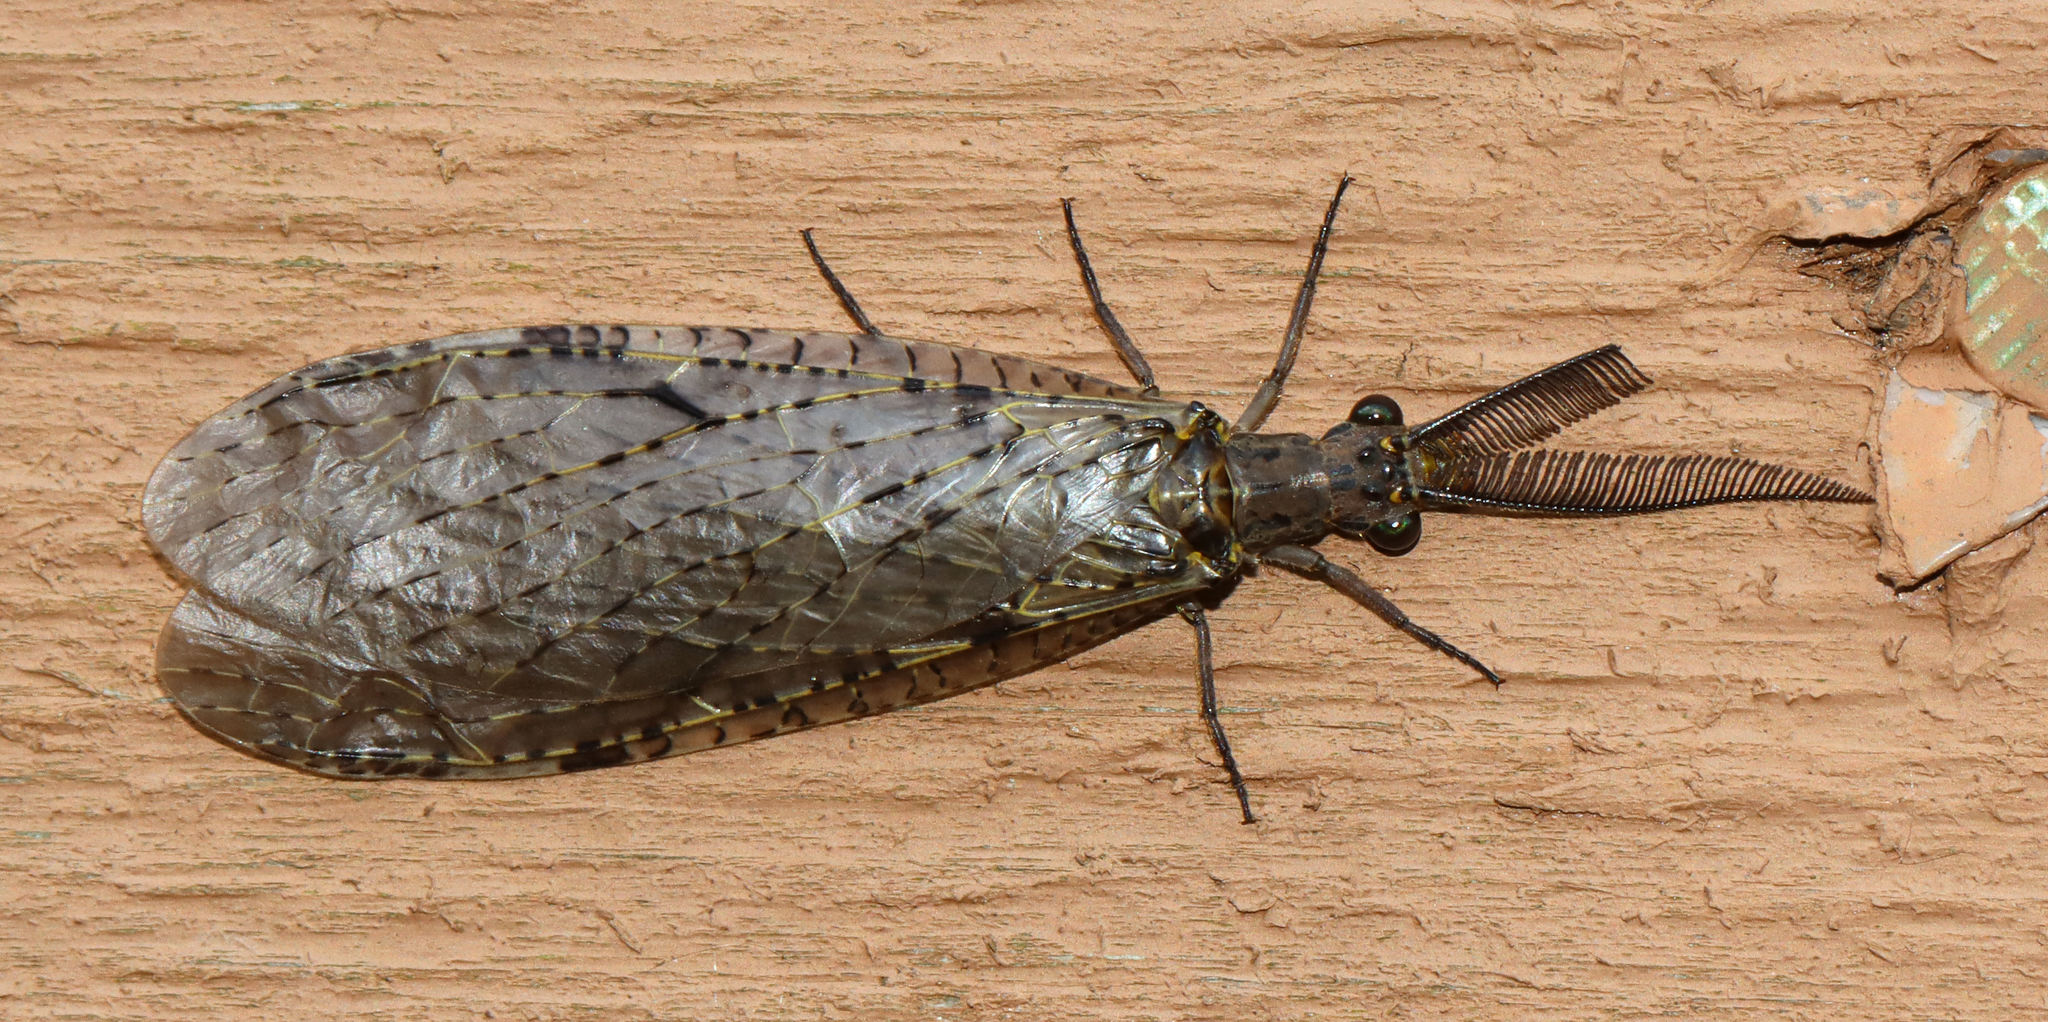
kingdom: Animalia
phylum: Arthropoda
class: Insecta
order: Megaloptera
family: Corydalidae
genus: Chauliodes
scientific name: Chauliodes rastricornis
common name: Spring fishfly
